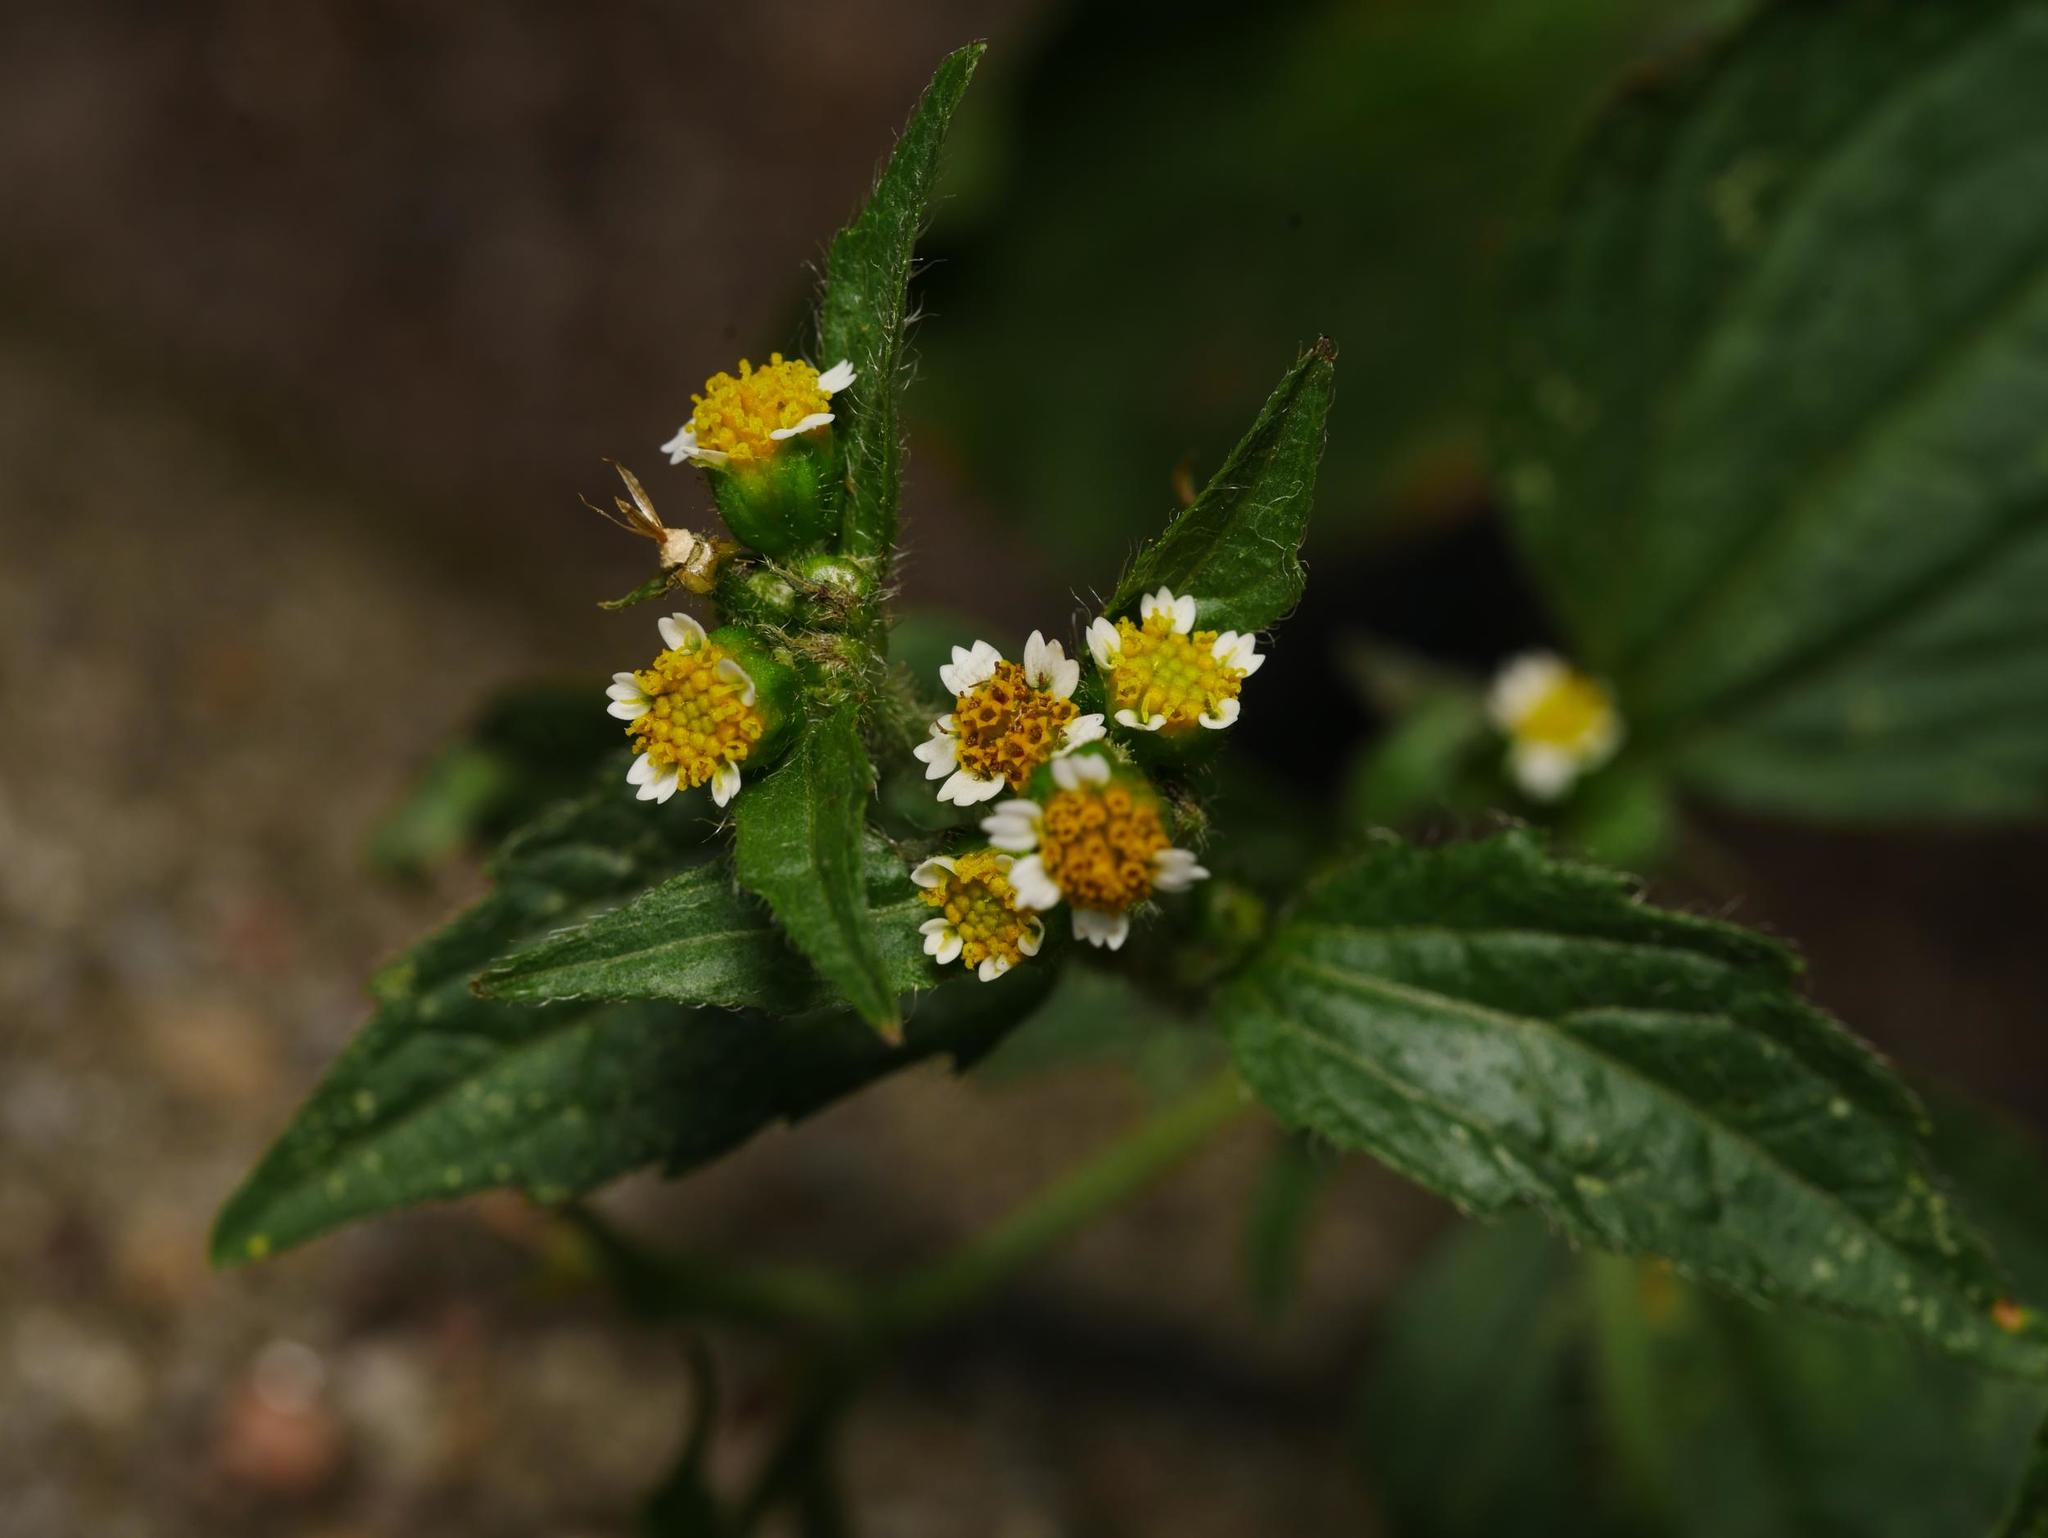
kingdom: Plantae
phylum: Tracheophyta
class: Magnoliopsida
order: Asterales
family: Asteraceae
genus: Galinsoga
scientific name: Galinsoga quadriradiata
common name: Shaggy soldier
